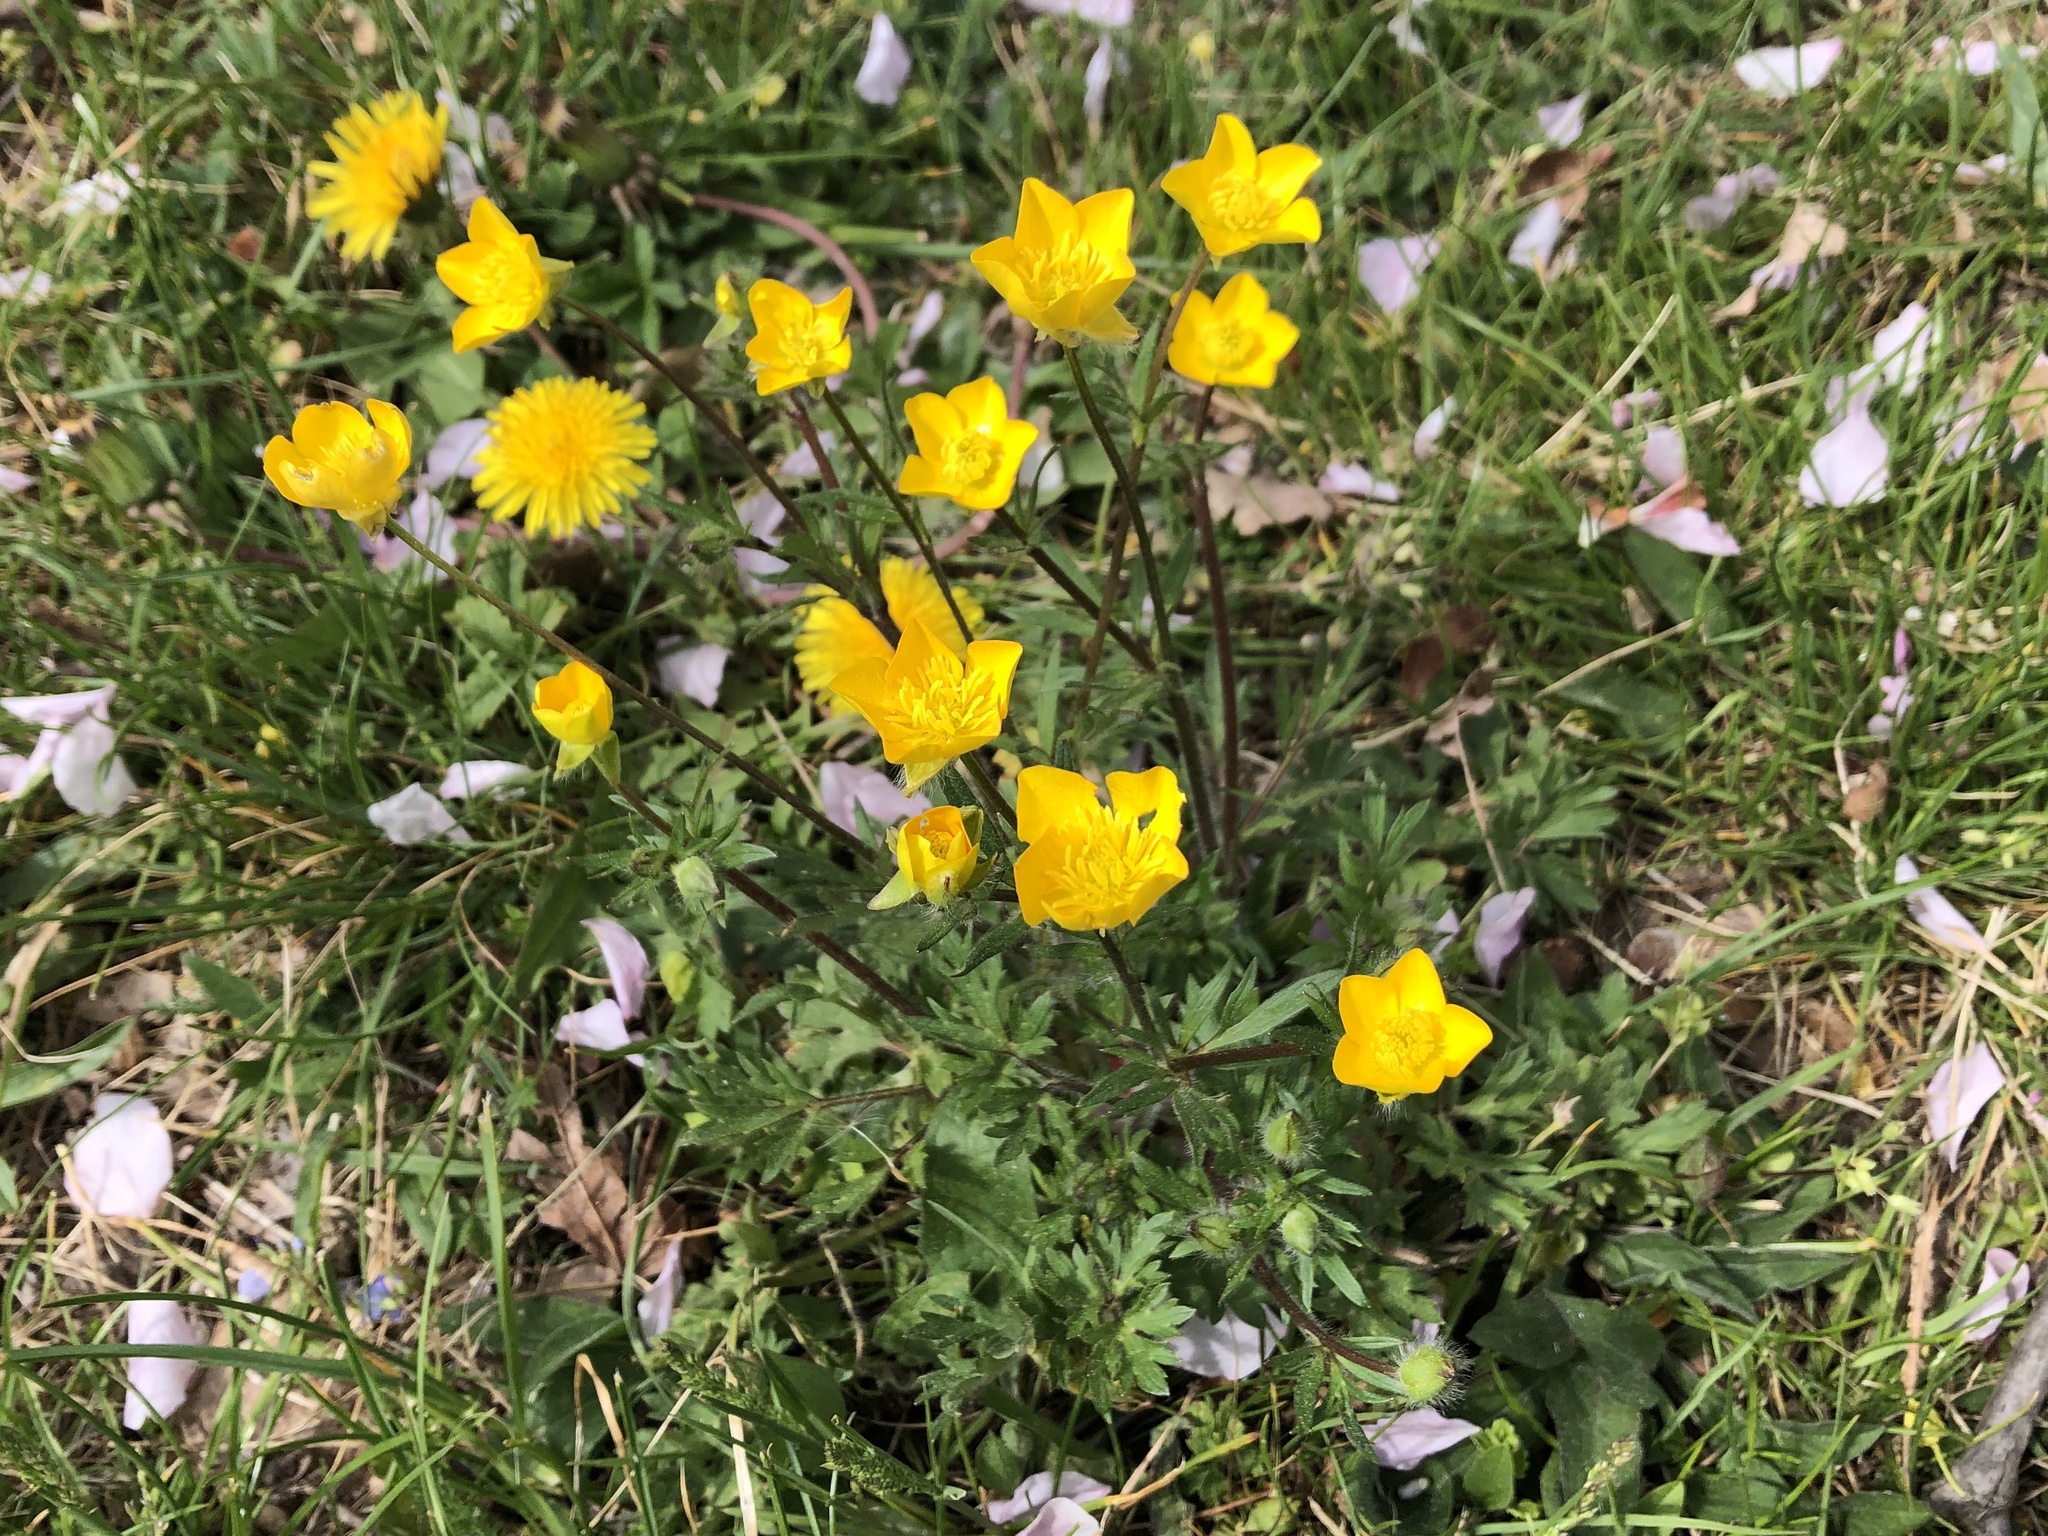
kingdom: Plantae
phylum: Tracheophyta
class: Magnoliopsida
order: Ranunculales
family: Ranunculaceae
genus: Ranunculus
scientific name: Ranunculus bulbosus
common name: Bulbous buttercup
